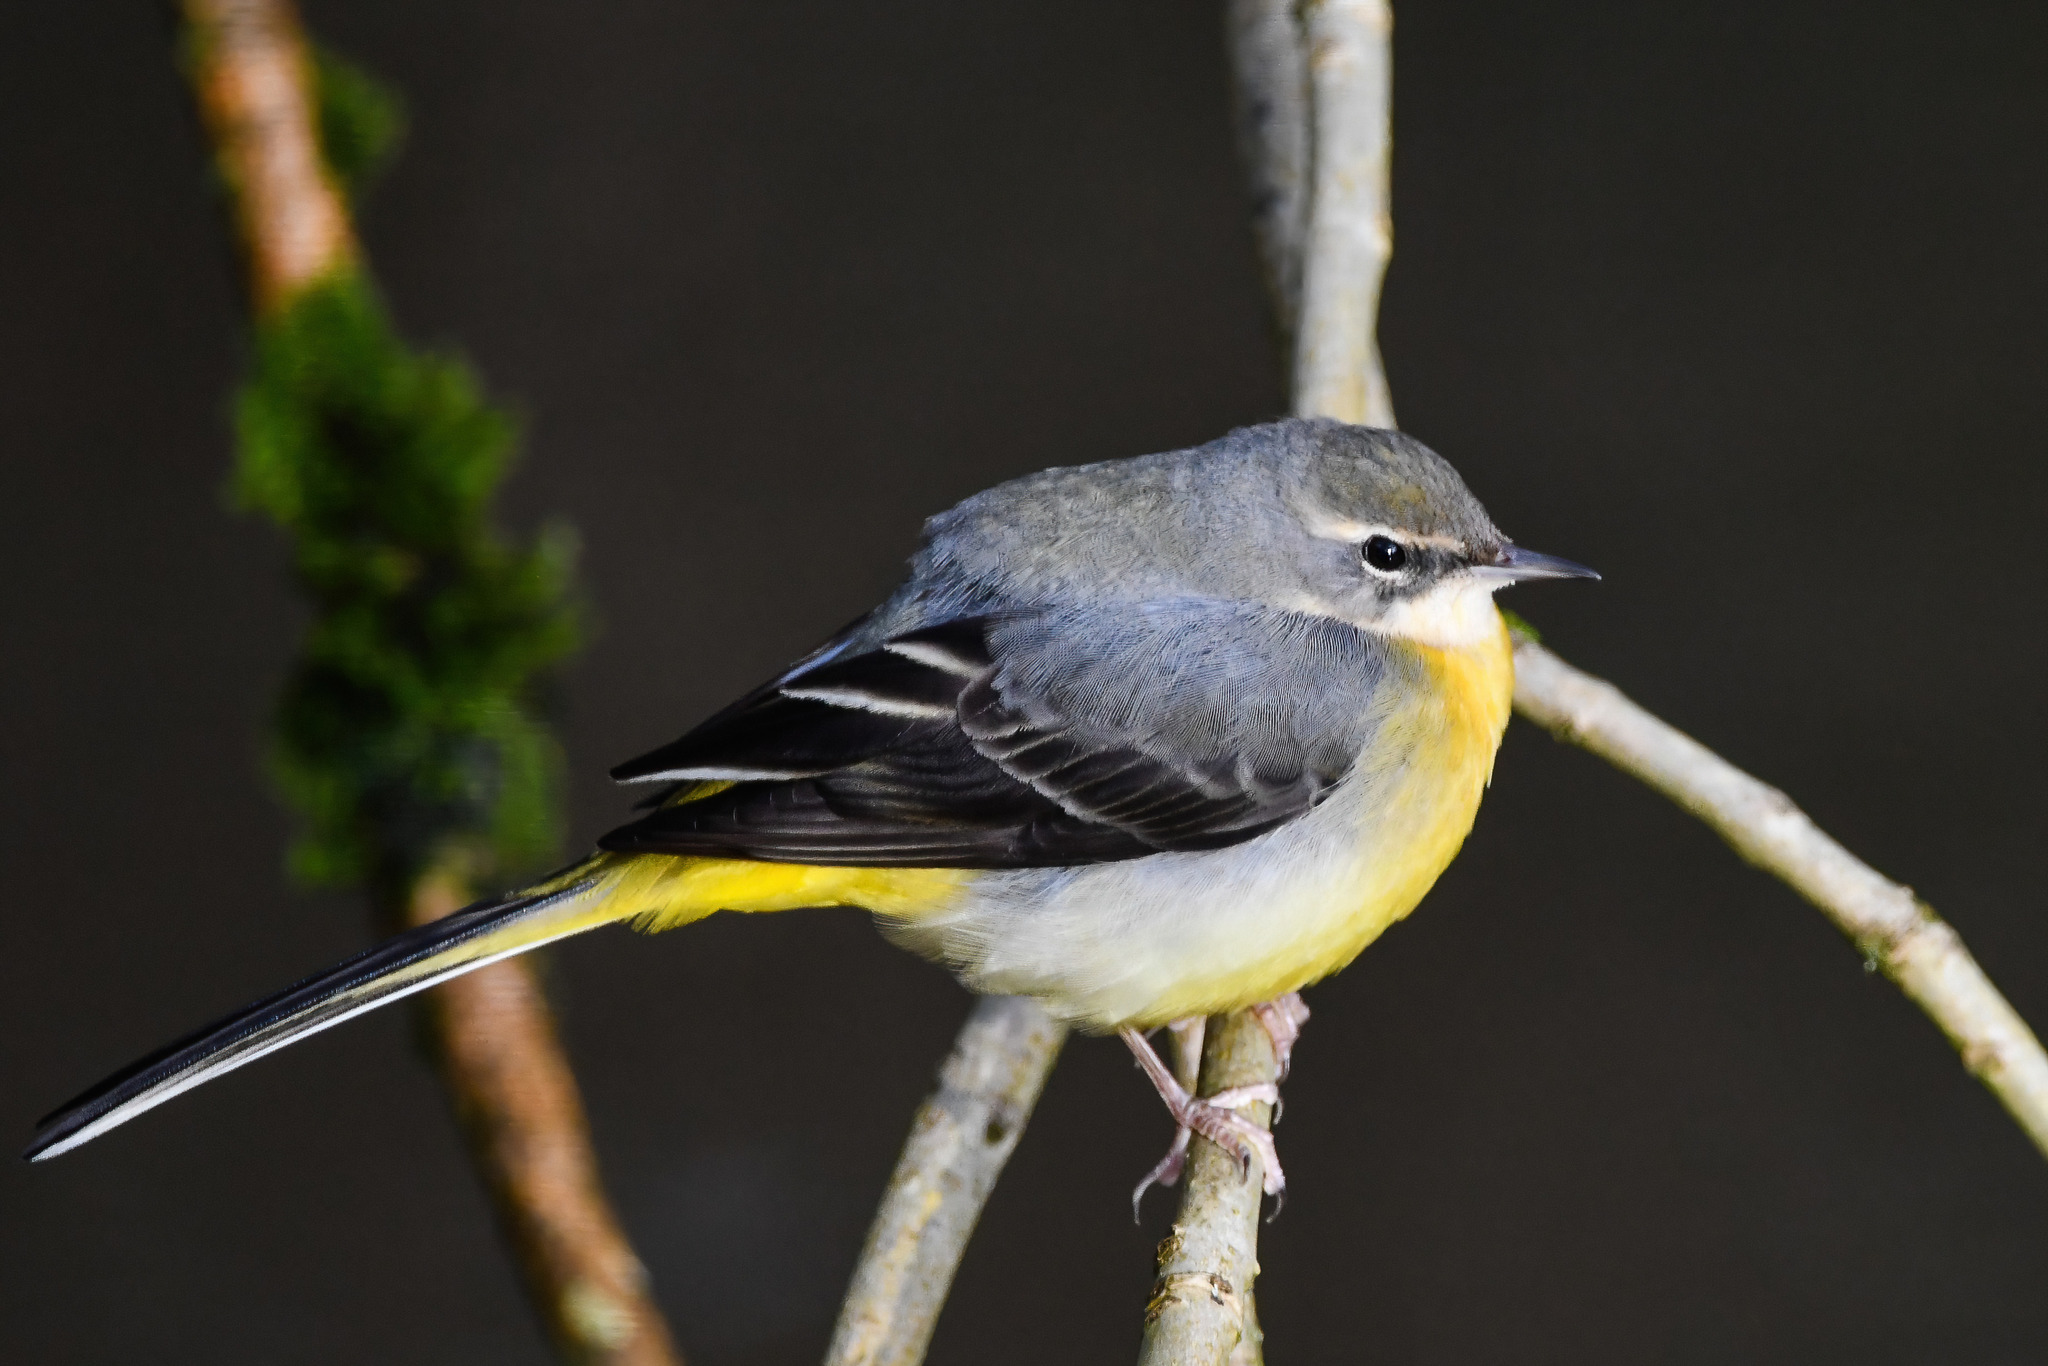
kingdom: Animalia
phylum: Chordata
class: Aves
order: Passeriformes
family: Motacillidae
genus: Motacilla
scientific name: Motacilla cinerea
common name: Grey wagtail
